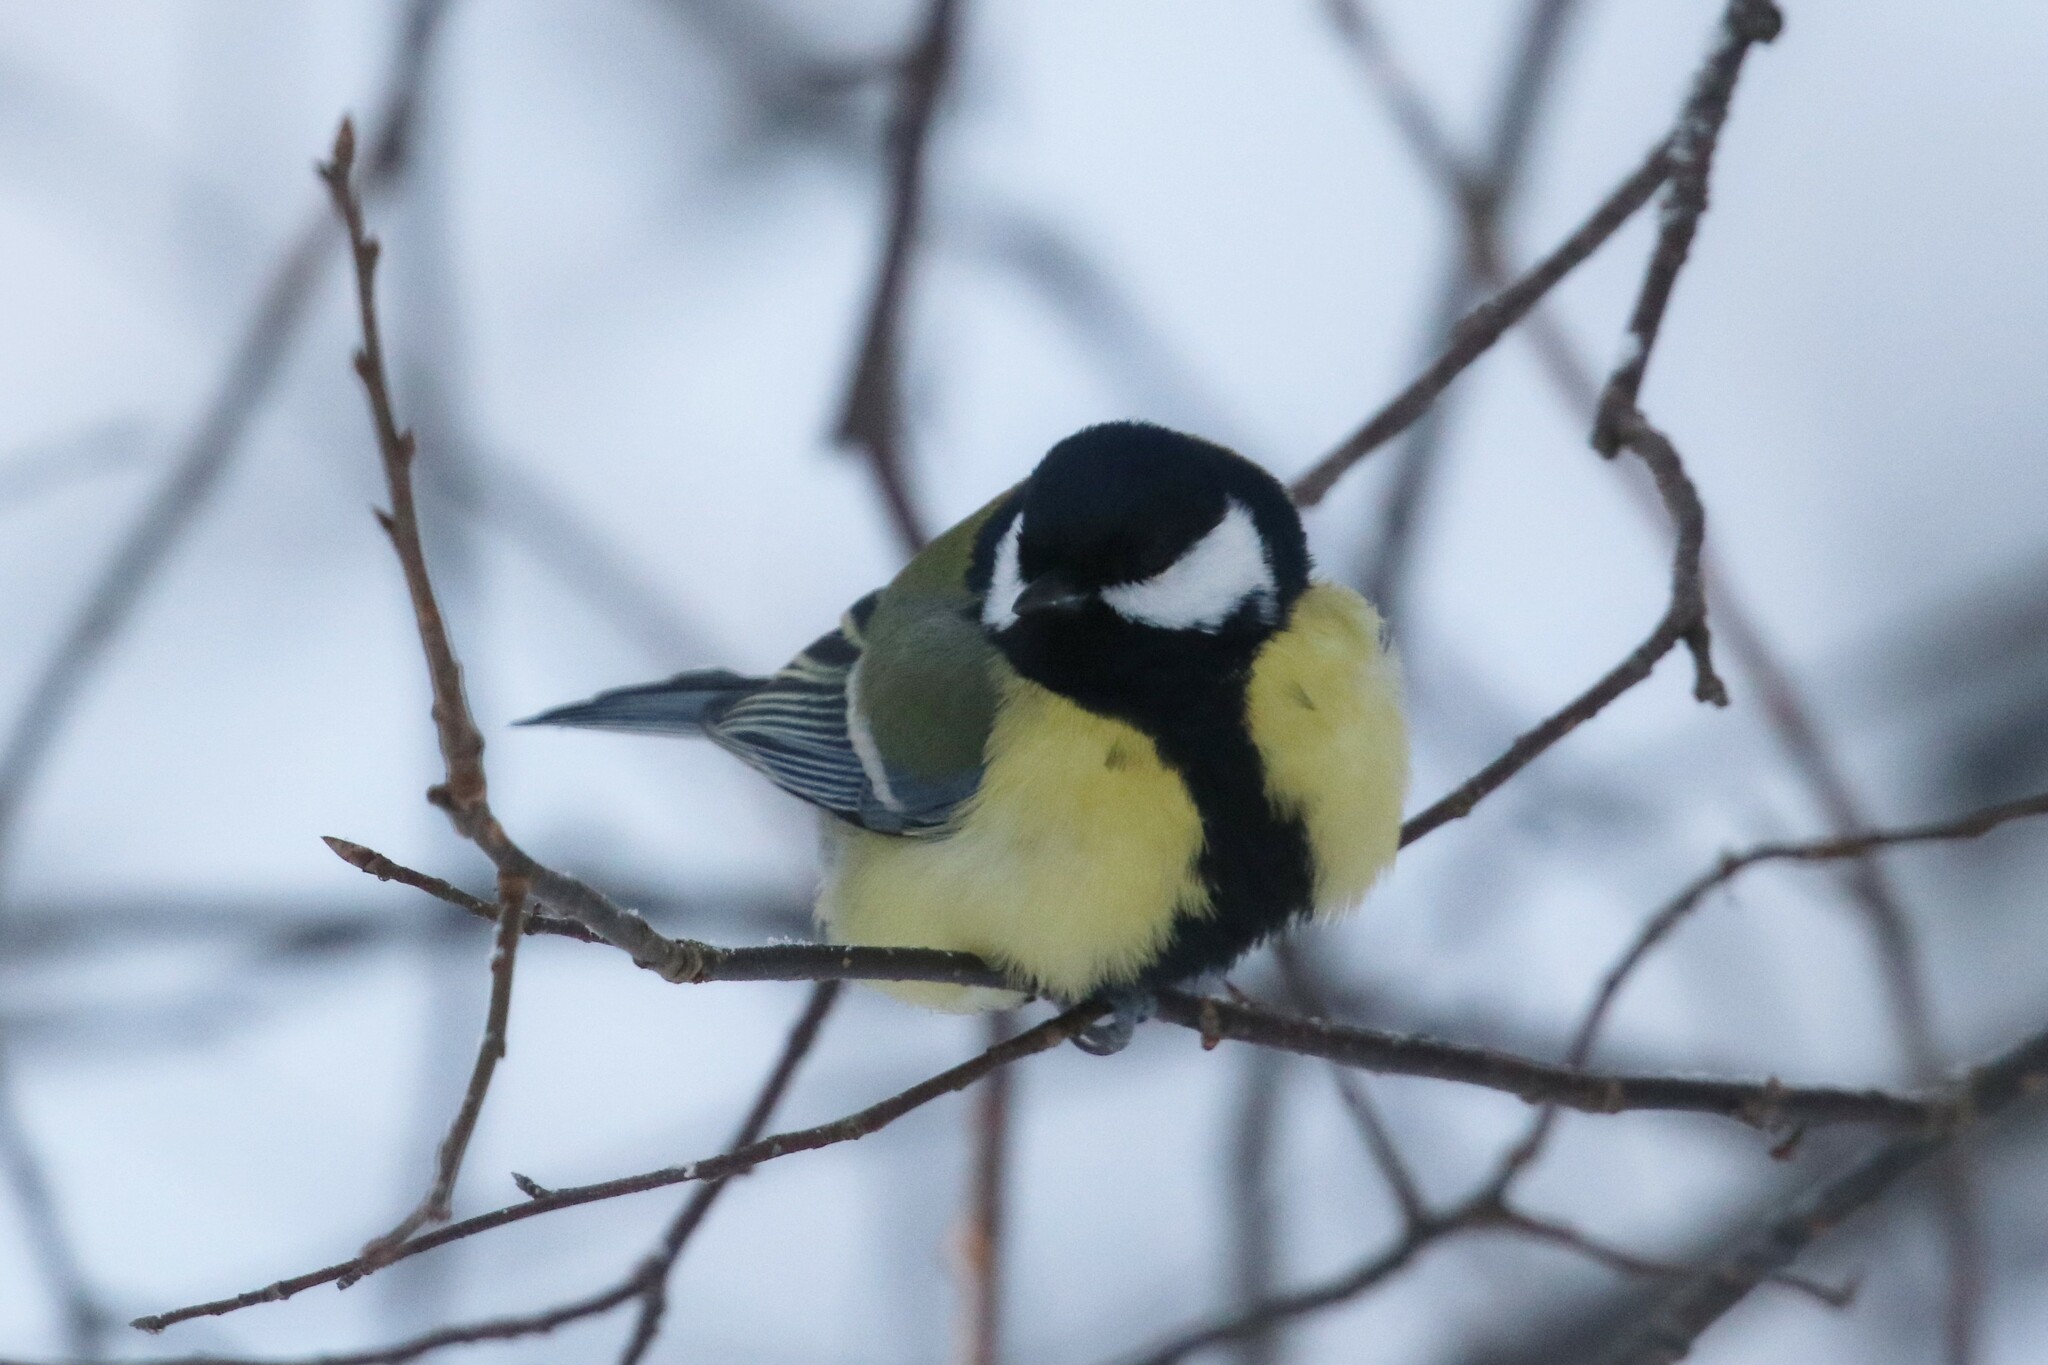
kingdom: Animalia
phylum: Chordata
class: Aves
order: Passeriformes
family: Paridae
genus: Parus
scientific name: Parus major
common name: Great tit
